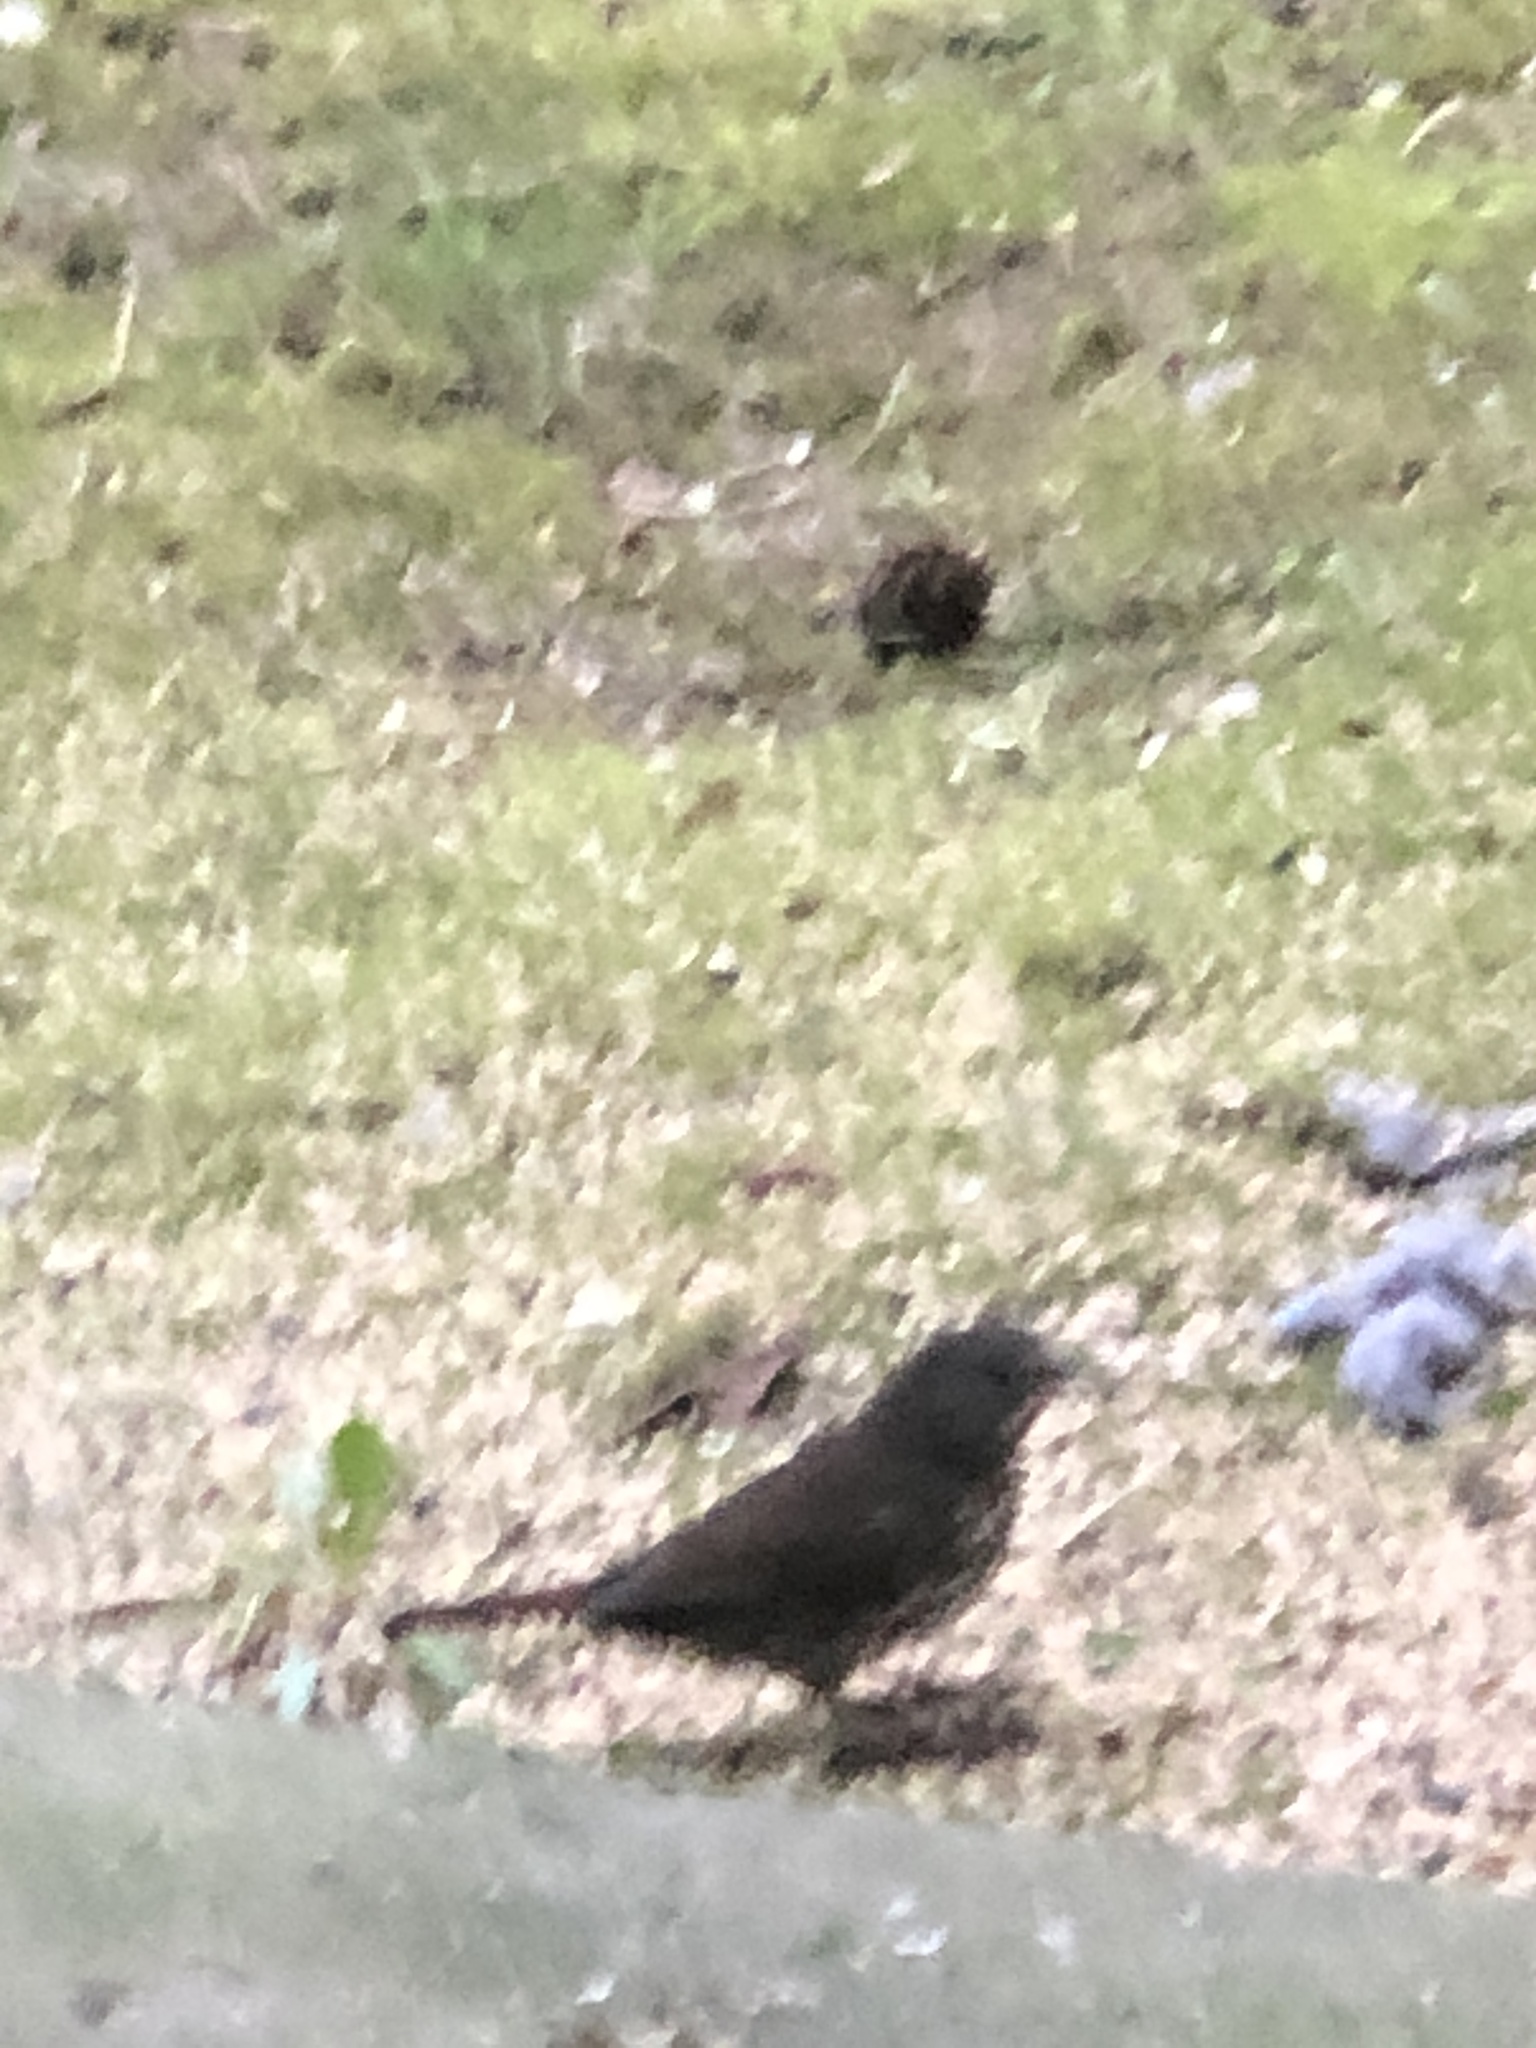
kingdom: Animalia
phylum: Chordata
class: Aves
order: Passeriformes
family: Passerellidae
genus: Passerella
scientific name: Passerella iliaca
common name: Fox sparrow
